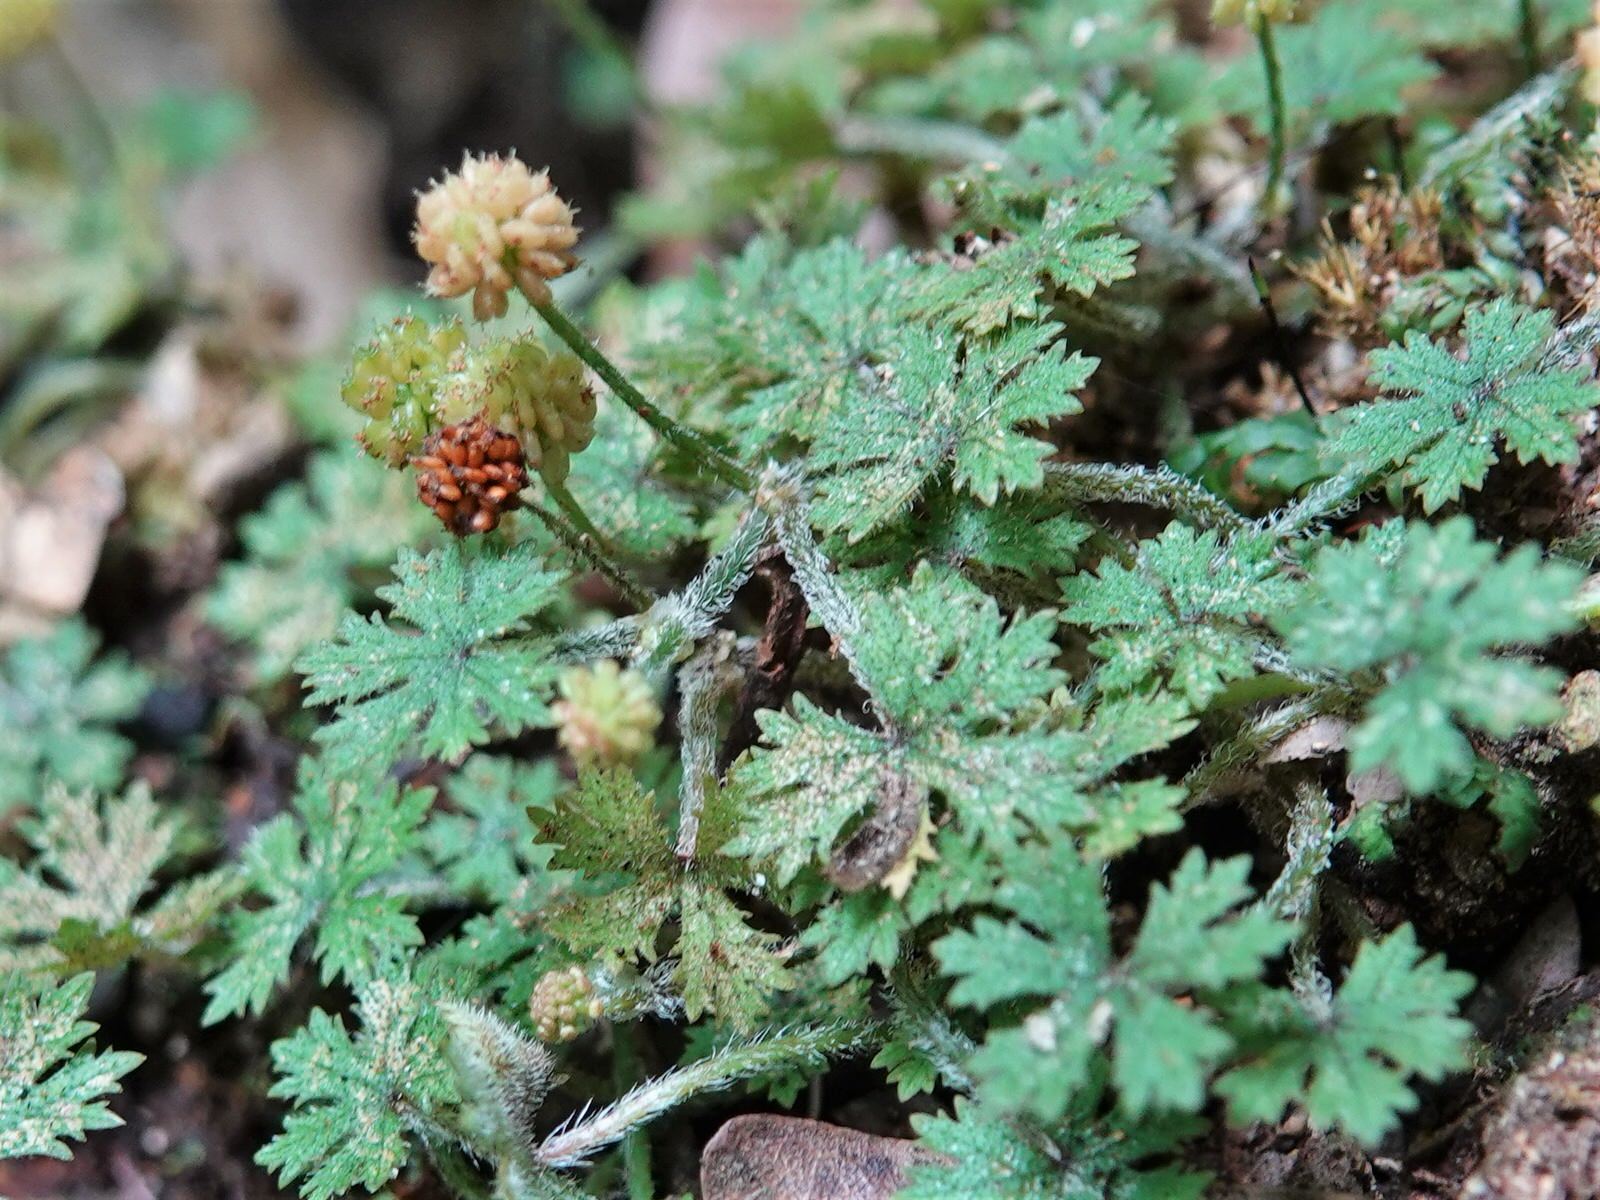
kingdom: Plantae
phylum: Tracheophyta
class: Magnoliopsida
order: Apiales
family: Araliaceae
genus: Hydrocotyle
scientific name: Hydrocotyle dissecta
